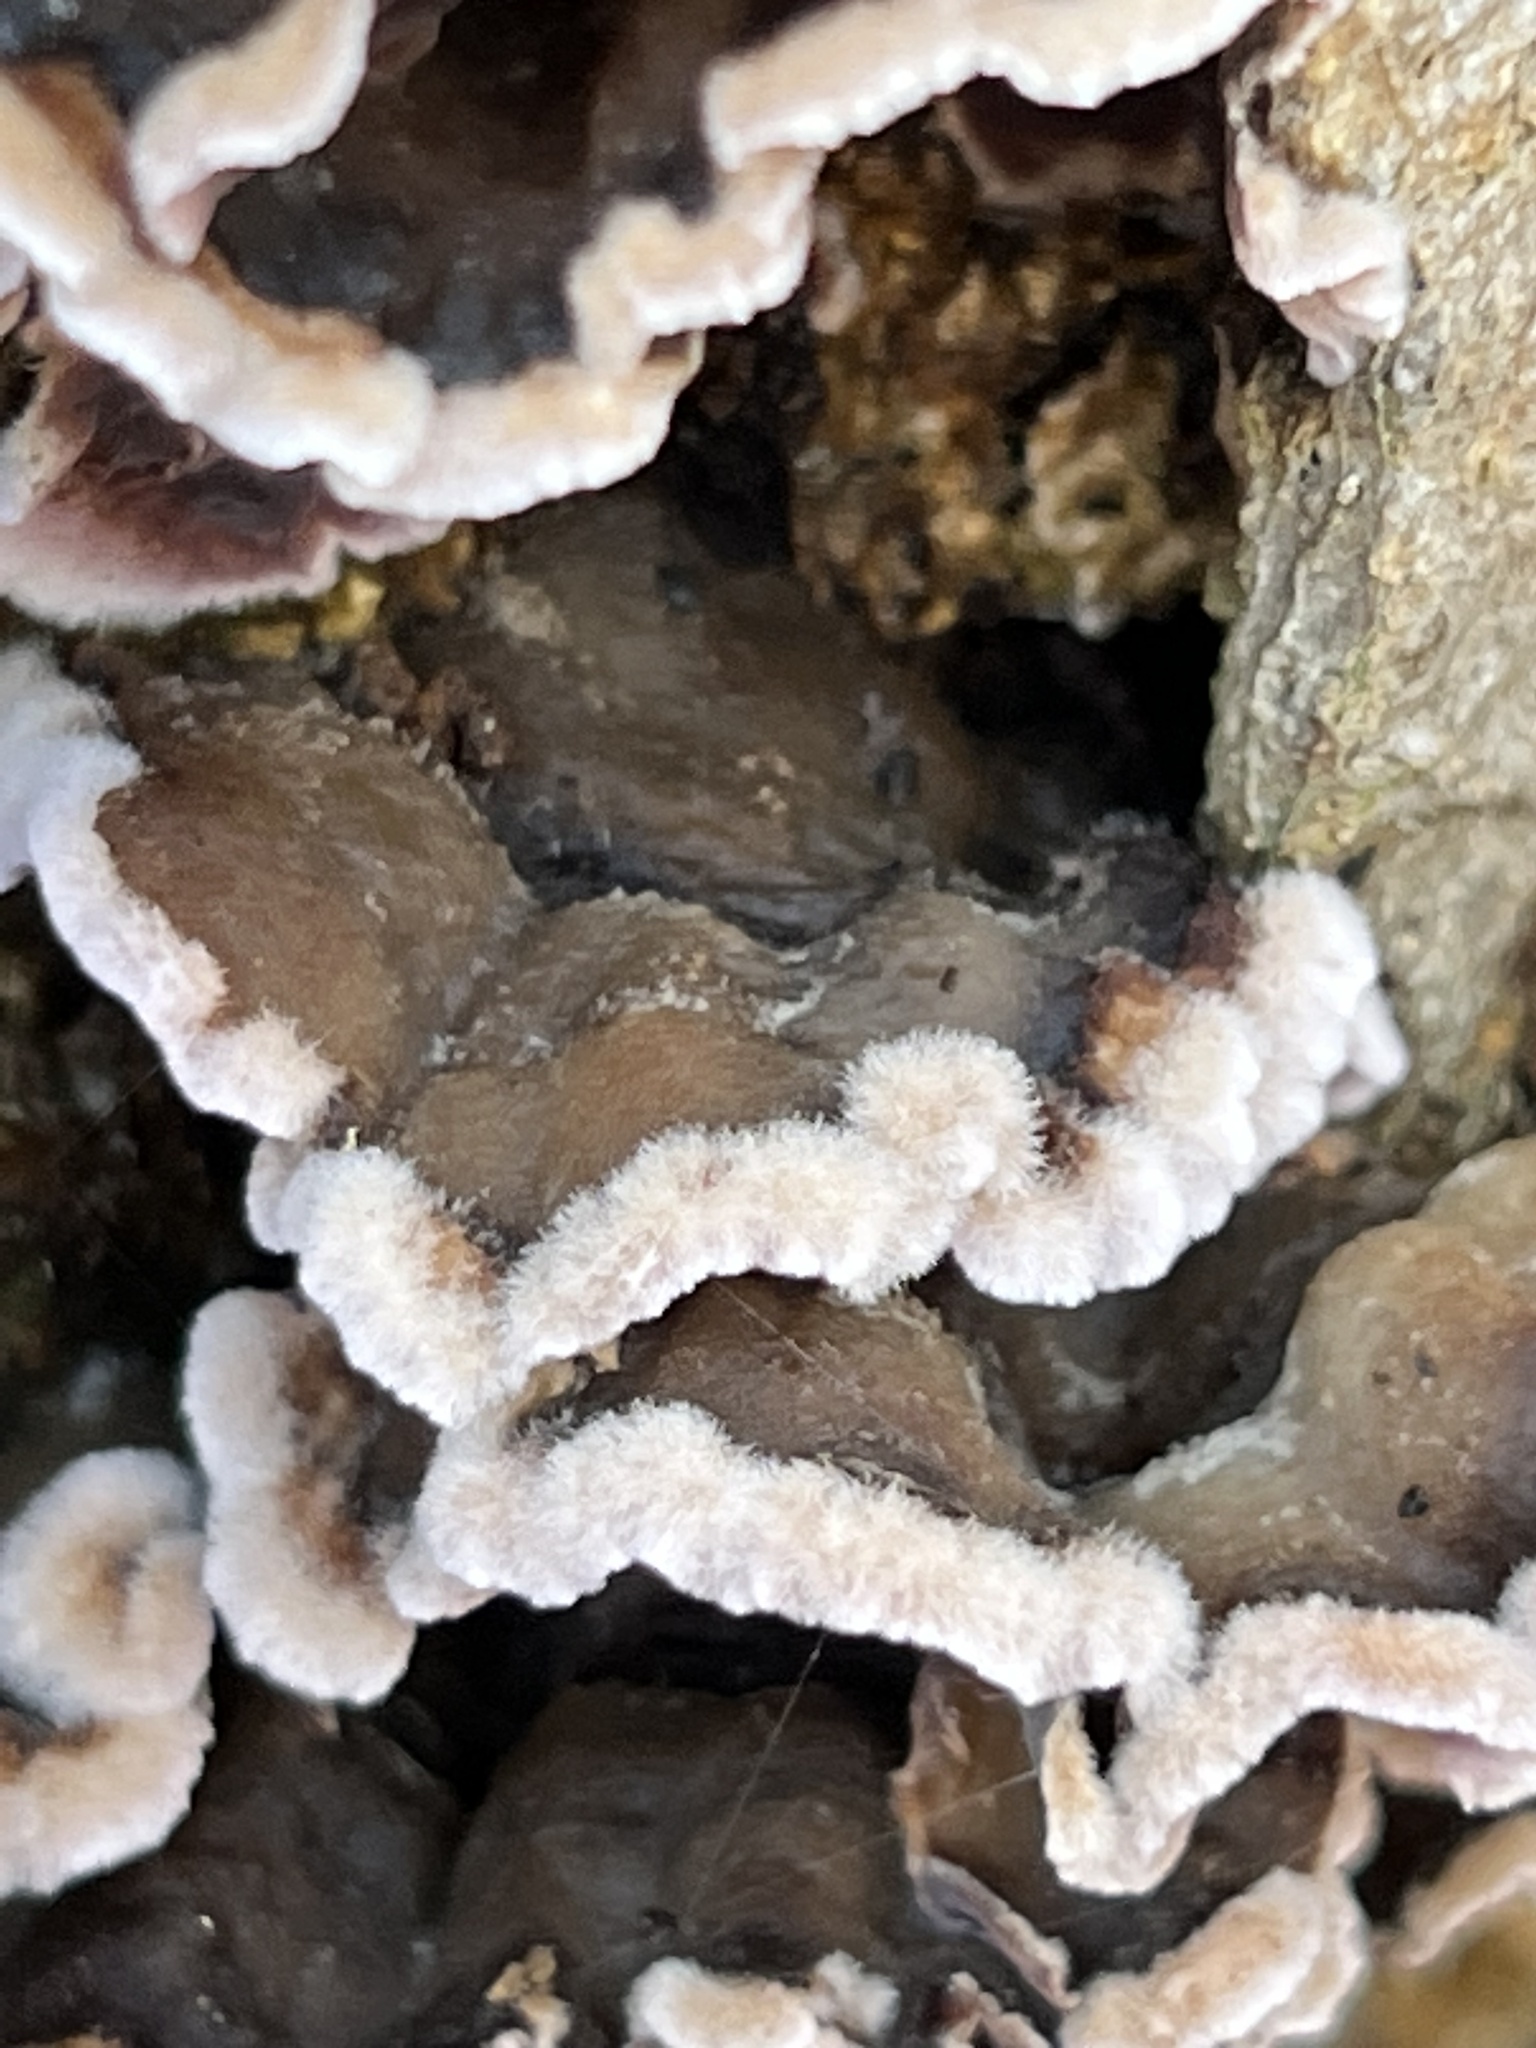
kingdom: Fungi
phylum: Basidiomycota
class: Agaricomycetes
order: Agaricales
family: Cyphellaceae
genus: Chondrostereum
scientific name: Chondrostereum purpureum
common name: Silver leaf disease
